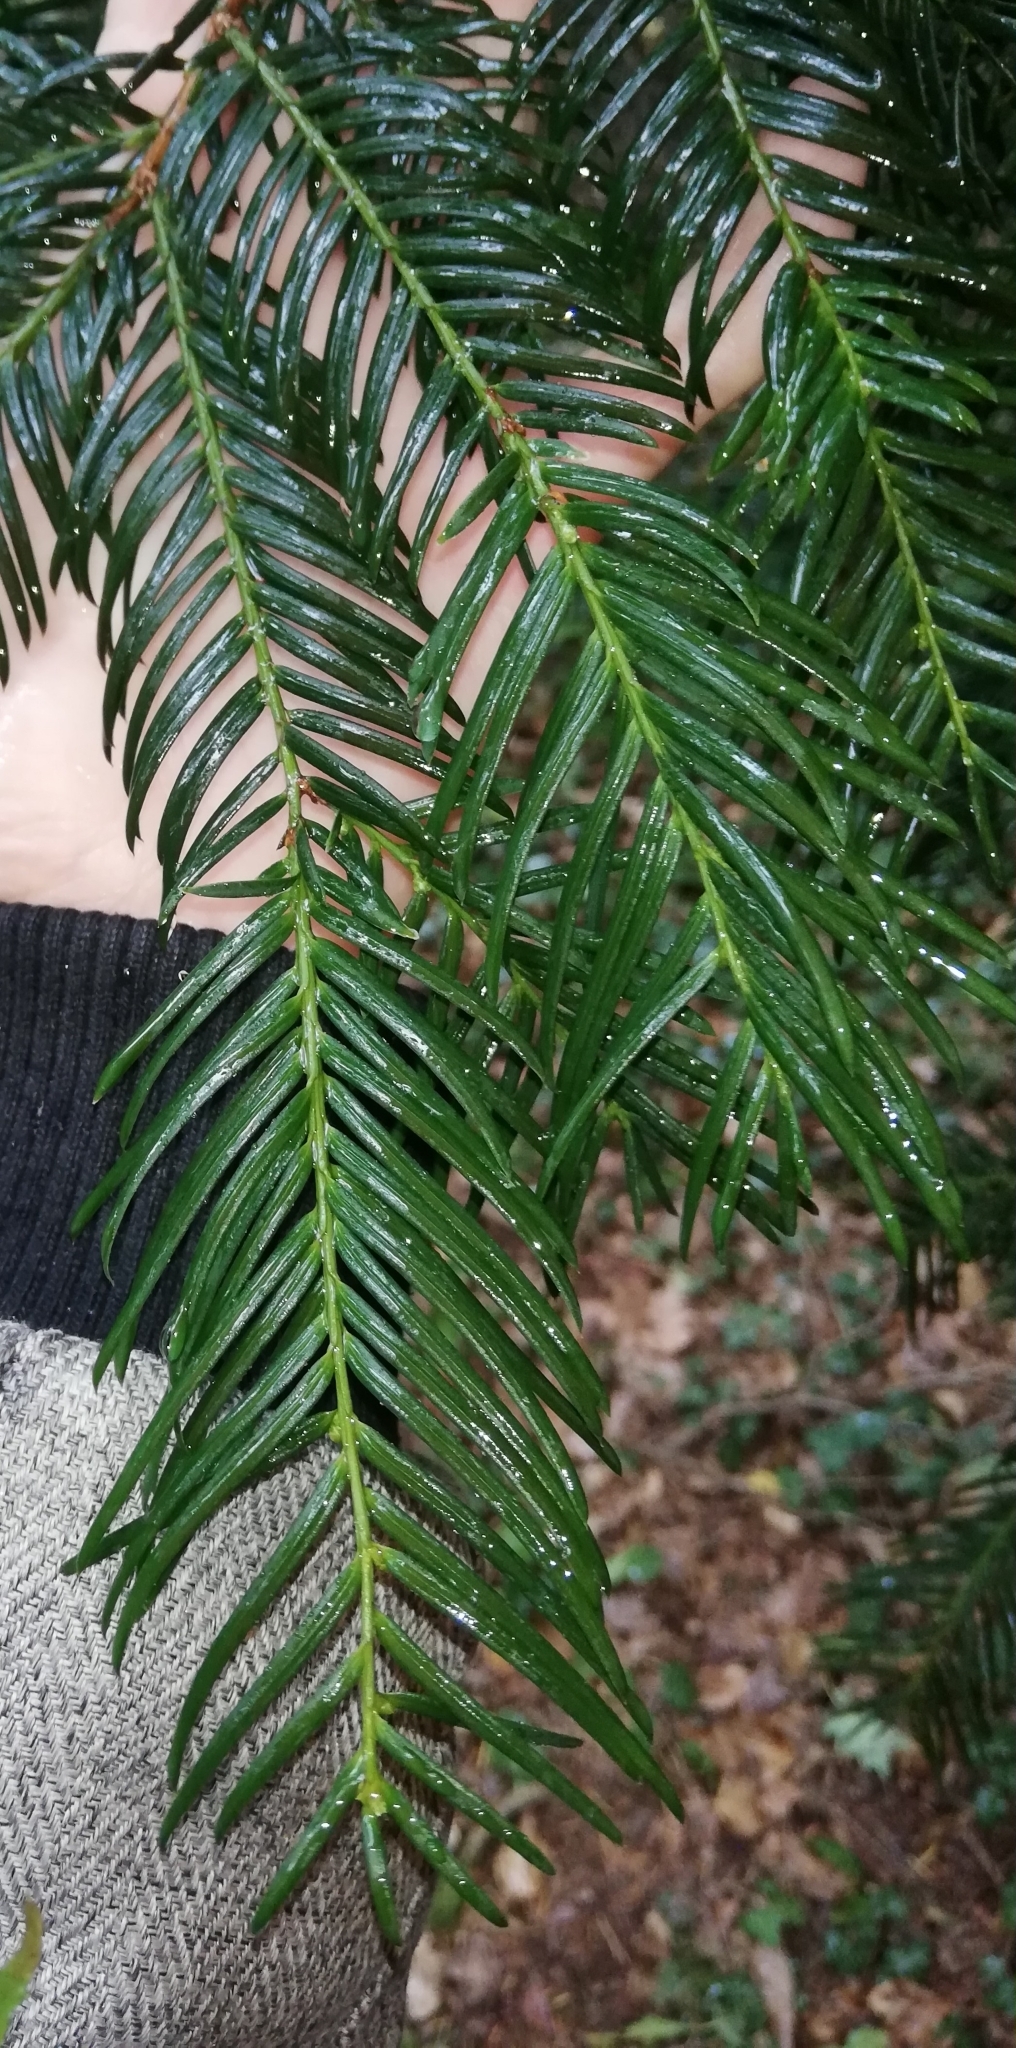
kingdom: Plantae
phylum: Tracheophyta
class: Pinopsida
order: Pinales
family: Taxaceae
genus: Taxus
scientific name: Taxus baccata
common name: Yew
